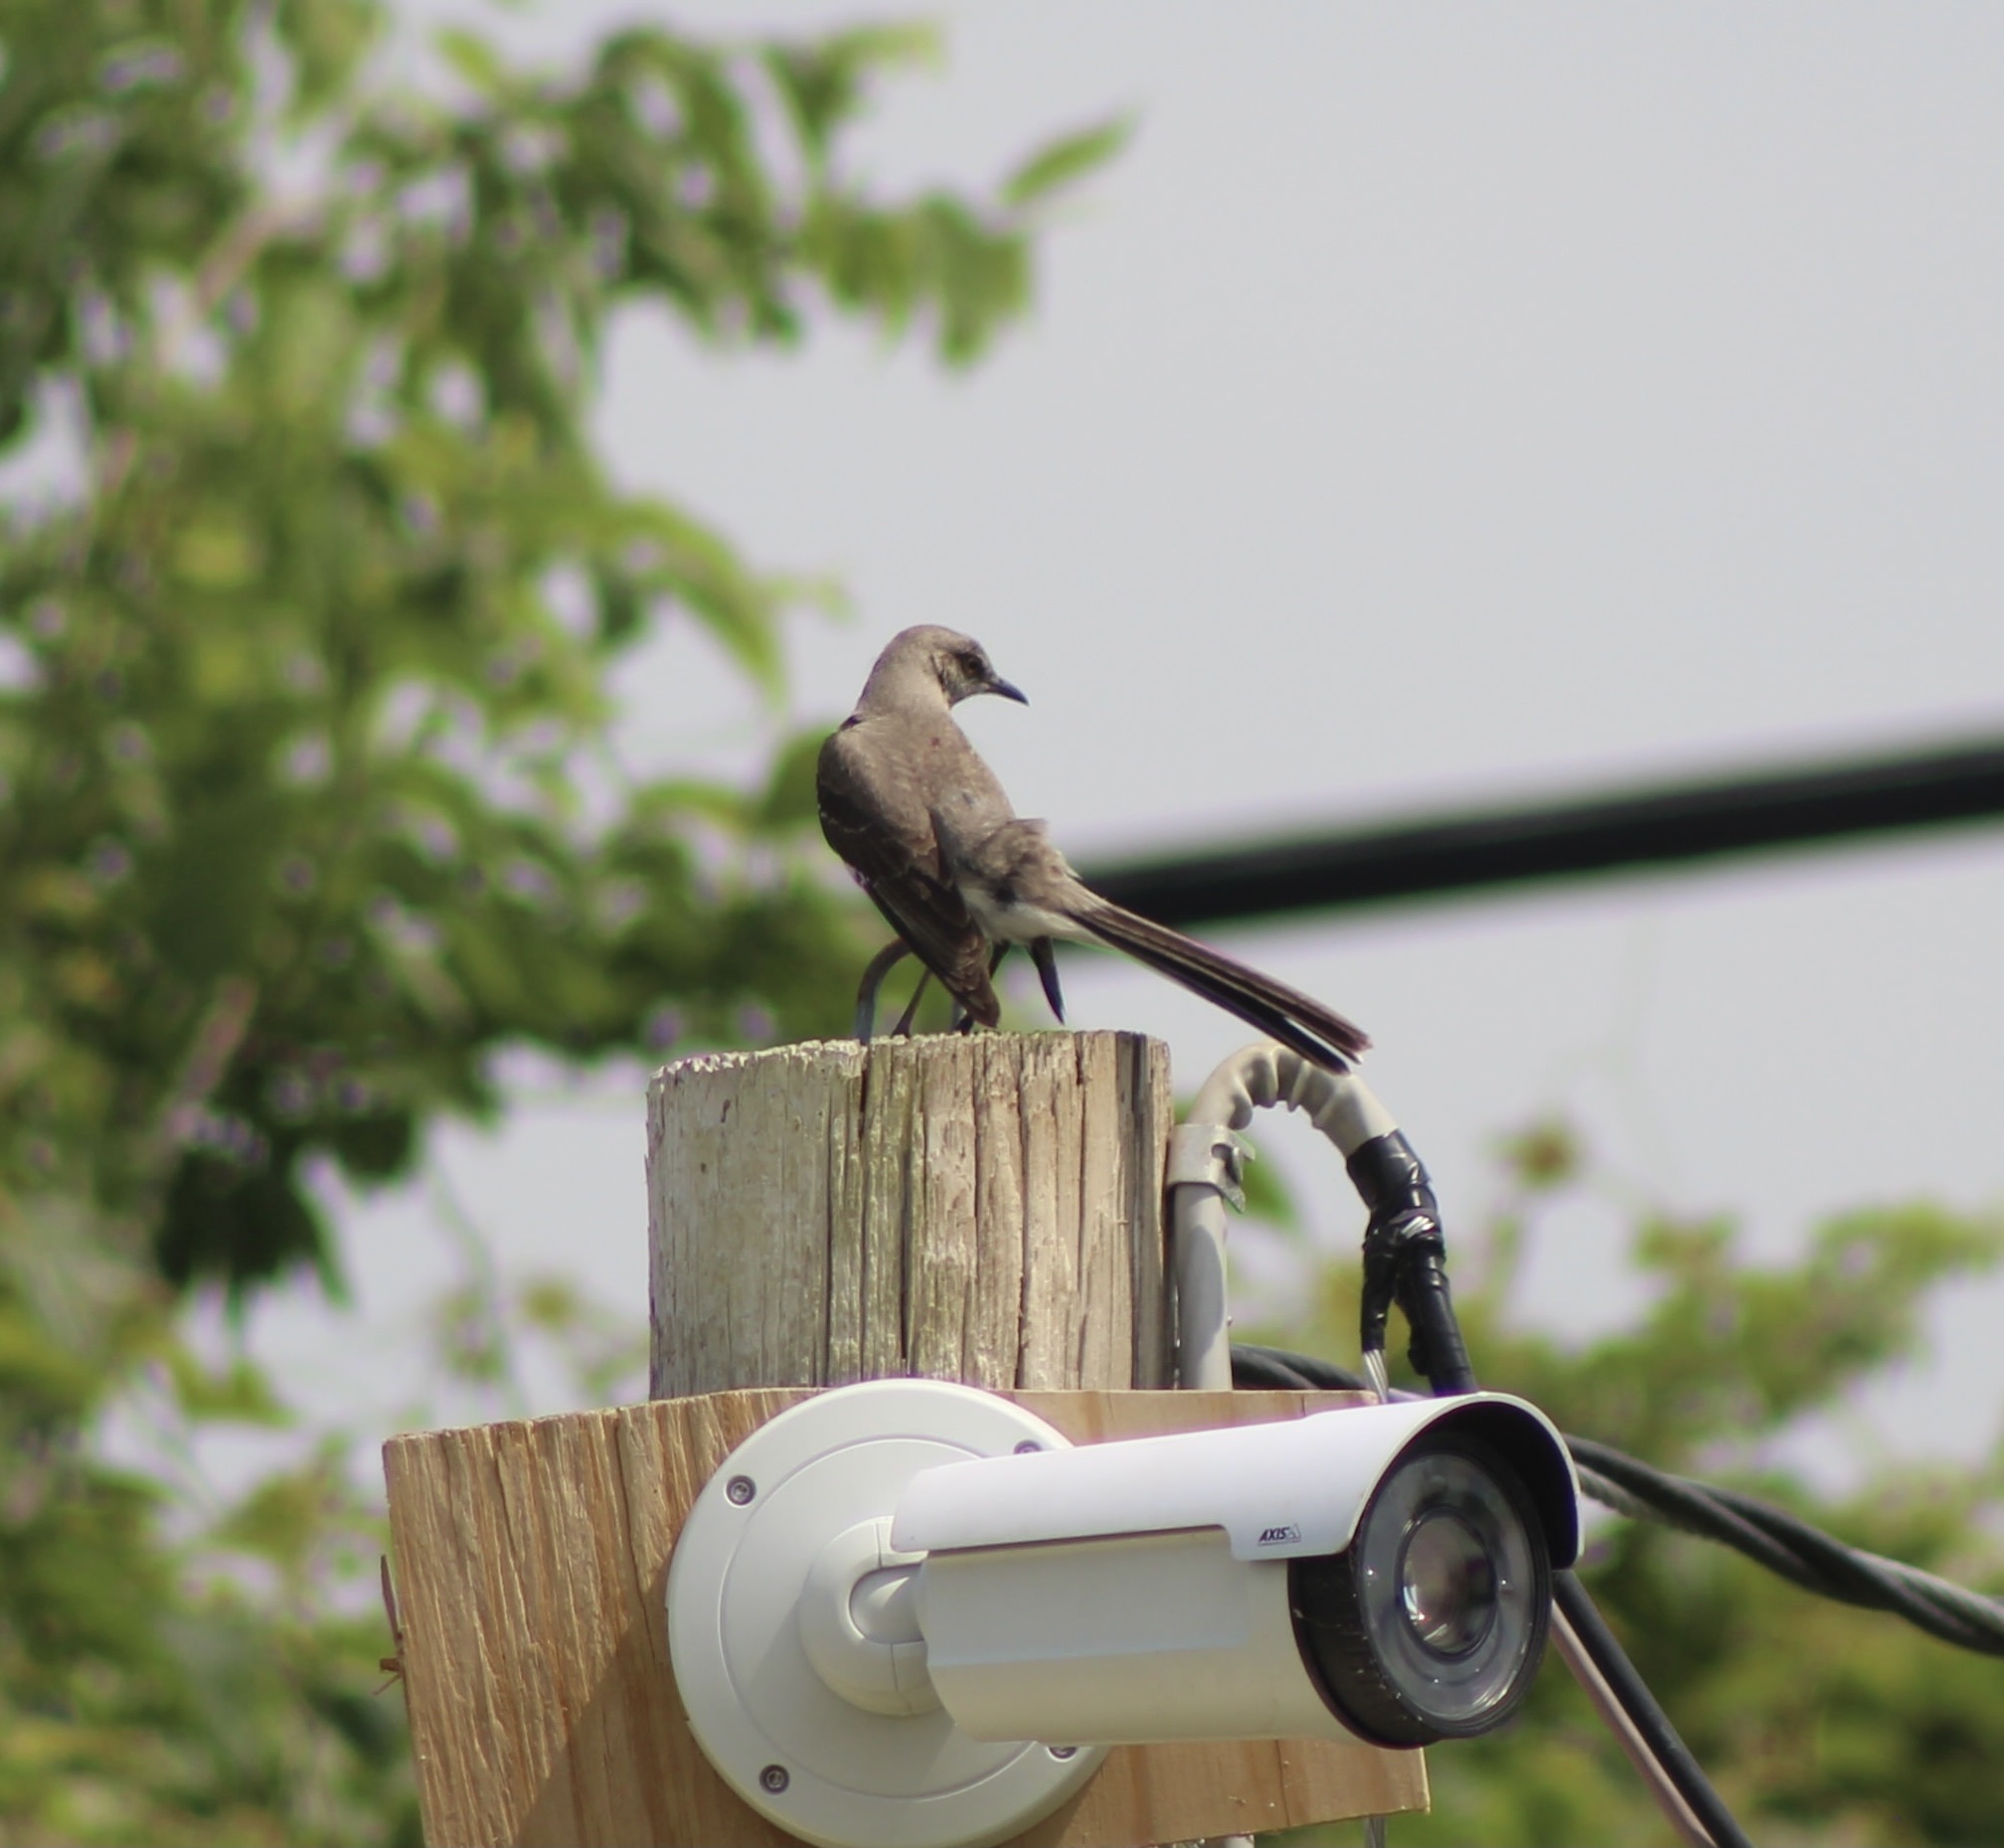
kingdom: Animalia
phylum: Chordata
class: Aves
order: Passeriformes
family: Mimidae
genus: Mimus
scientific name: Mimus polyglottos
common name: Northern mockingbird
